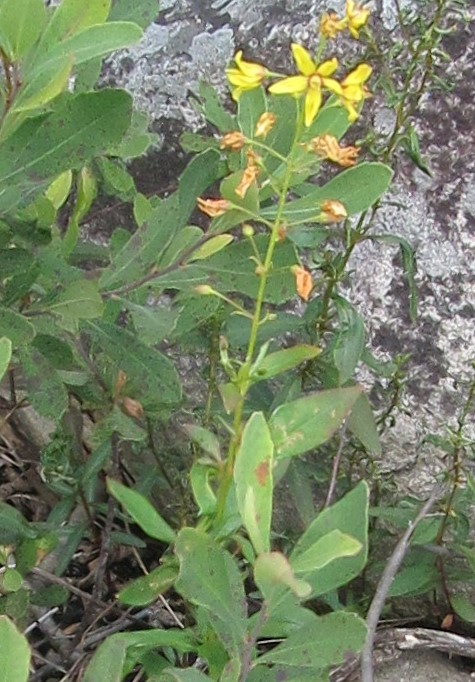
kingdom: Plantae
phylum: Tracheophyta
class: Magnoliopsida
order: Ericales
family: Primulaceae
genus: Lysimachia
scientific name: Lysimachia terrestris
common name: Lake loosestrife
